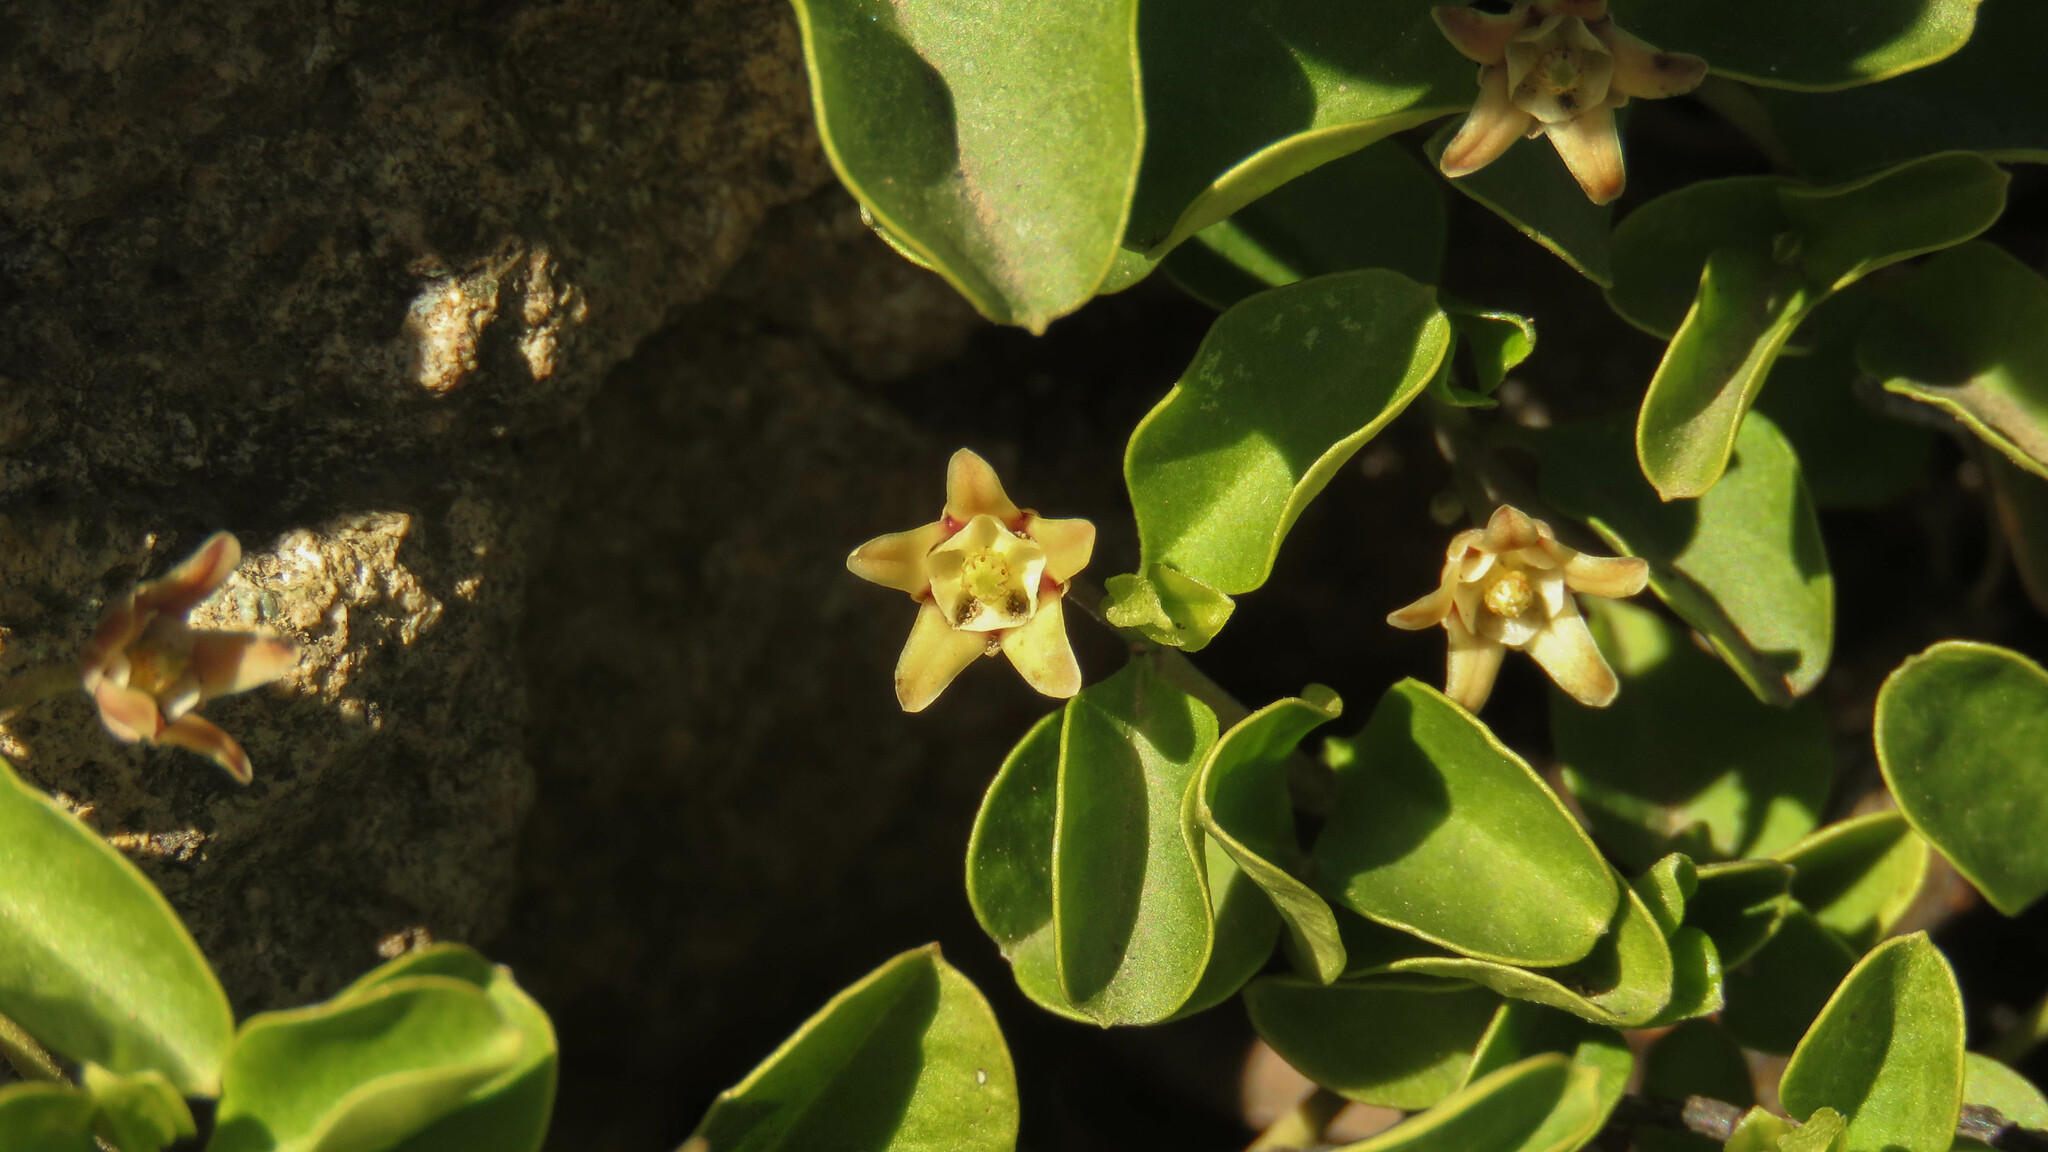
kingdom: Plantae
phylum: Tracheophyta
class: Magnoliopsida
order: Gentianales
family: Apocynaceae
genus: Diplolepis
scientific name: Diplolepis biflora
